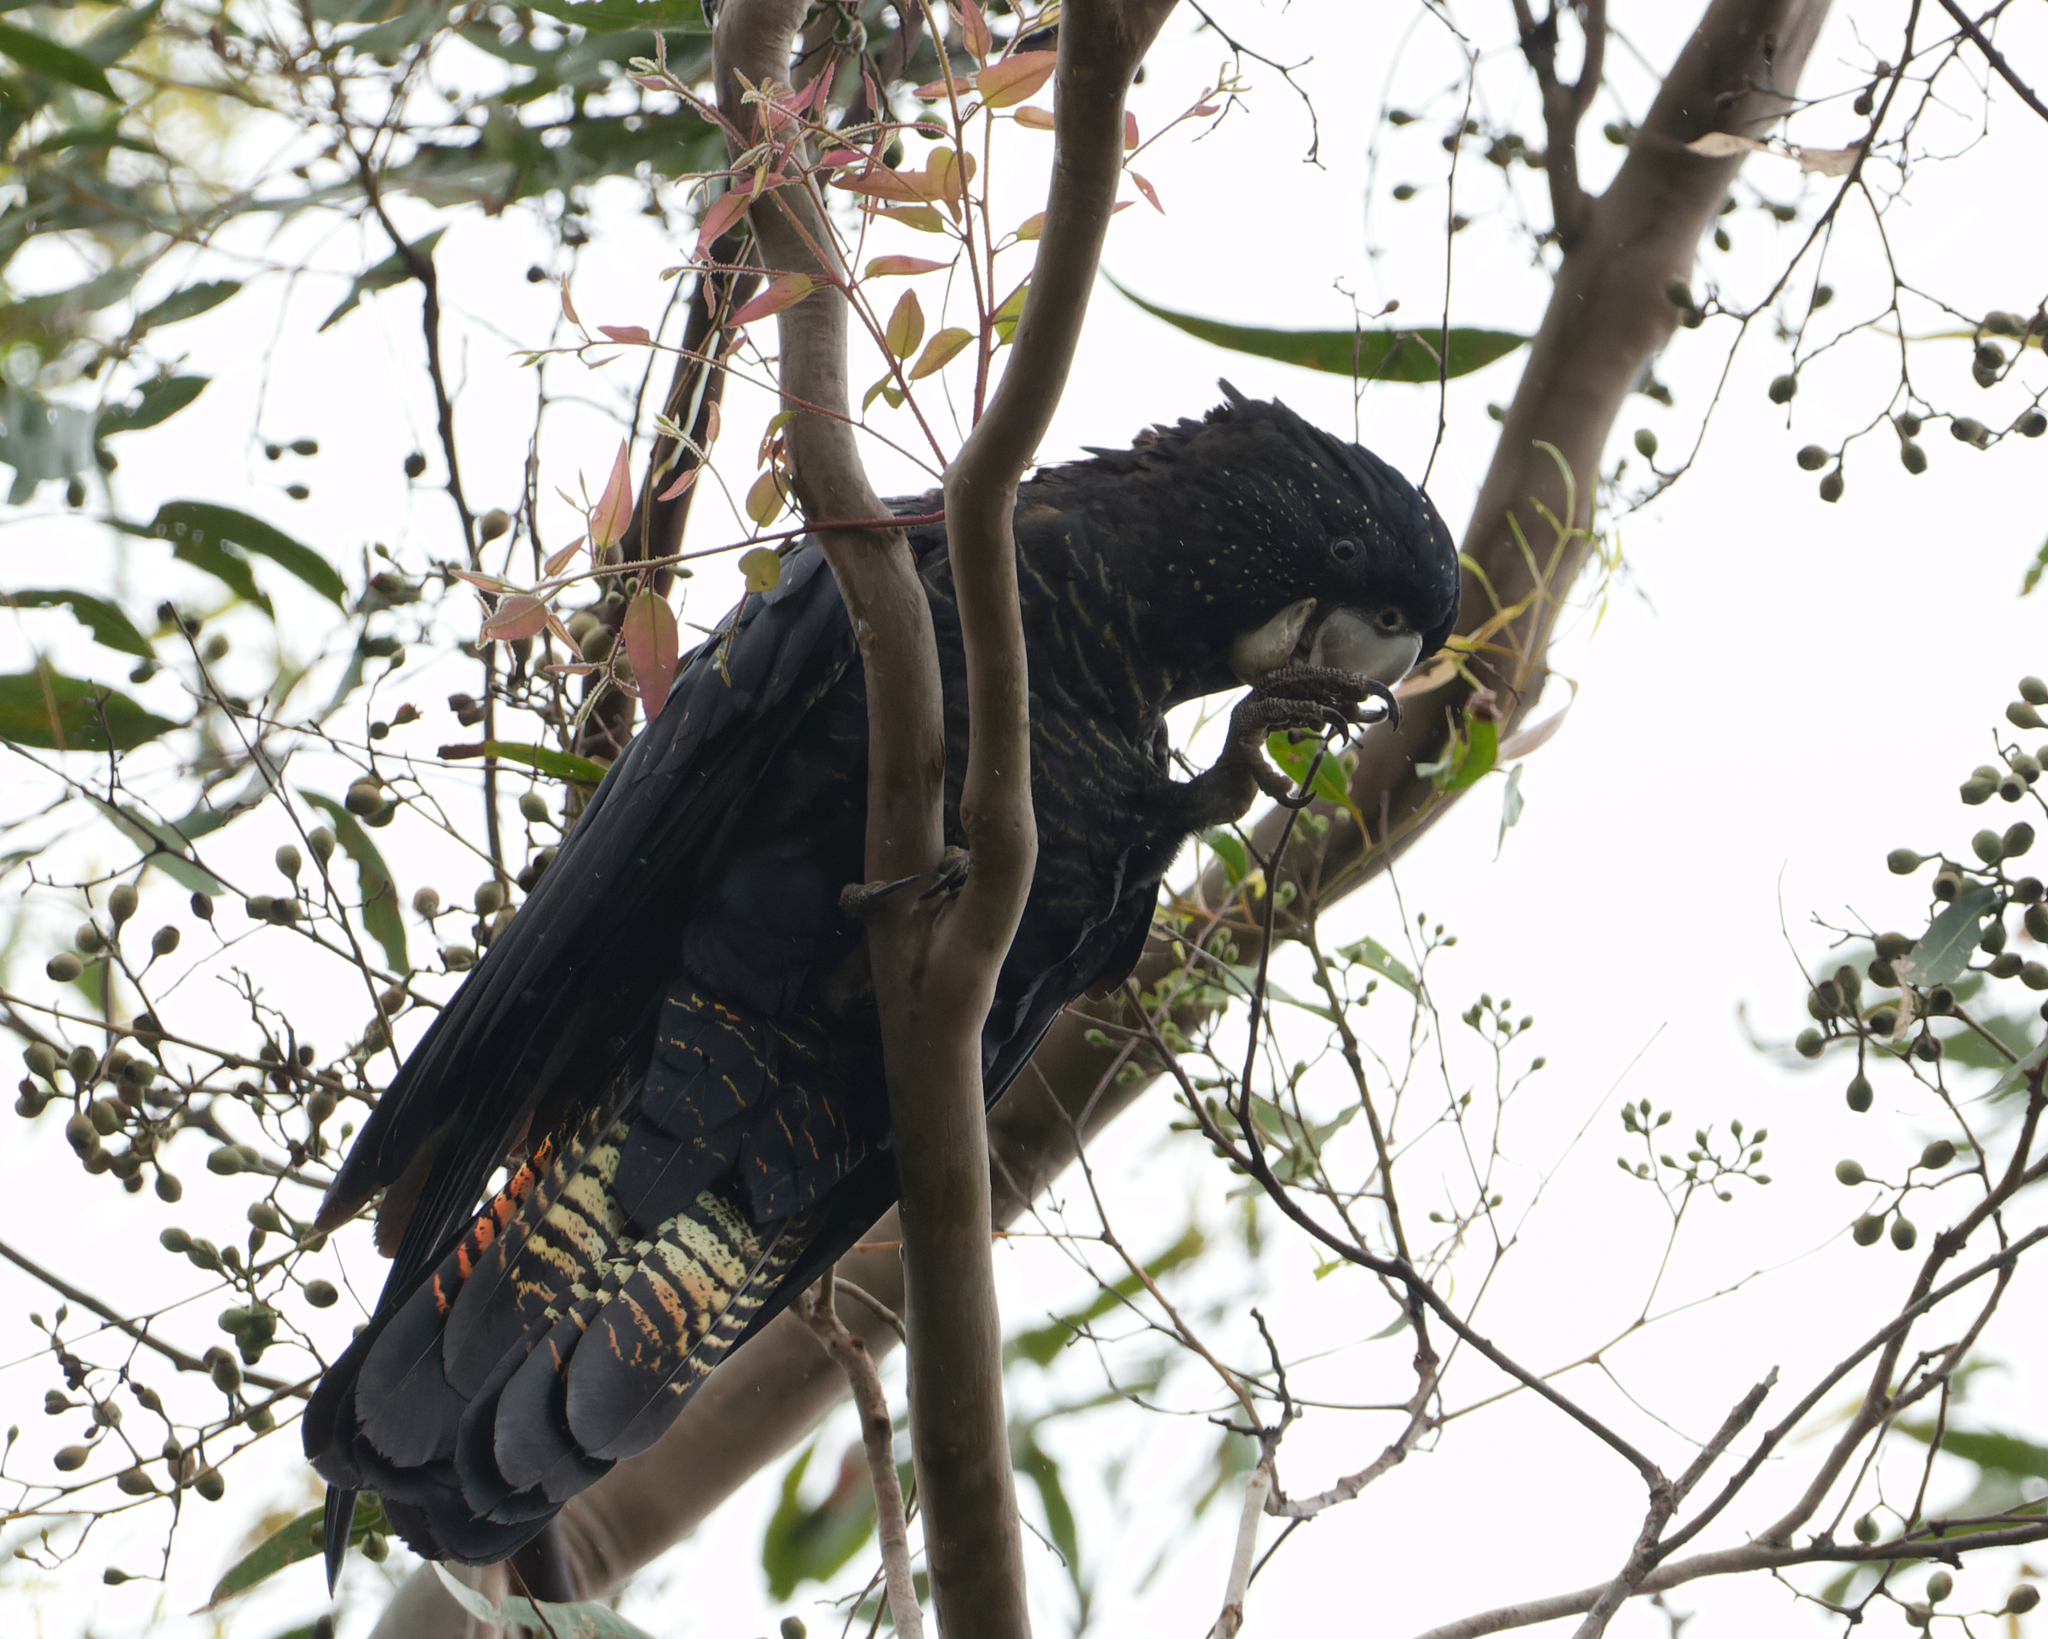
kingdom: Animalia
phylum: Chordata
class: Aves
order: Psittaciformes
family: Psittacidae
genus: Calyptorhynchus
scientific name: Calyptorhynchus banksii
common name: Red-tailed black cockatoo
